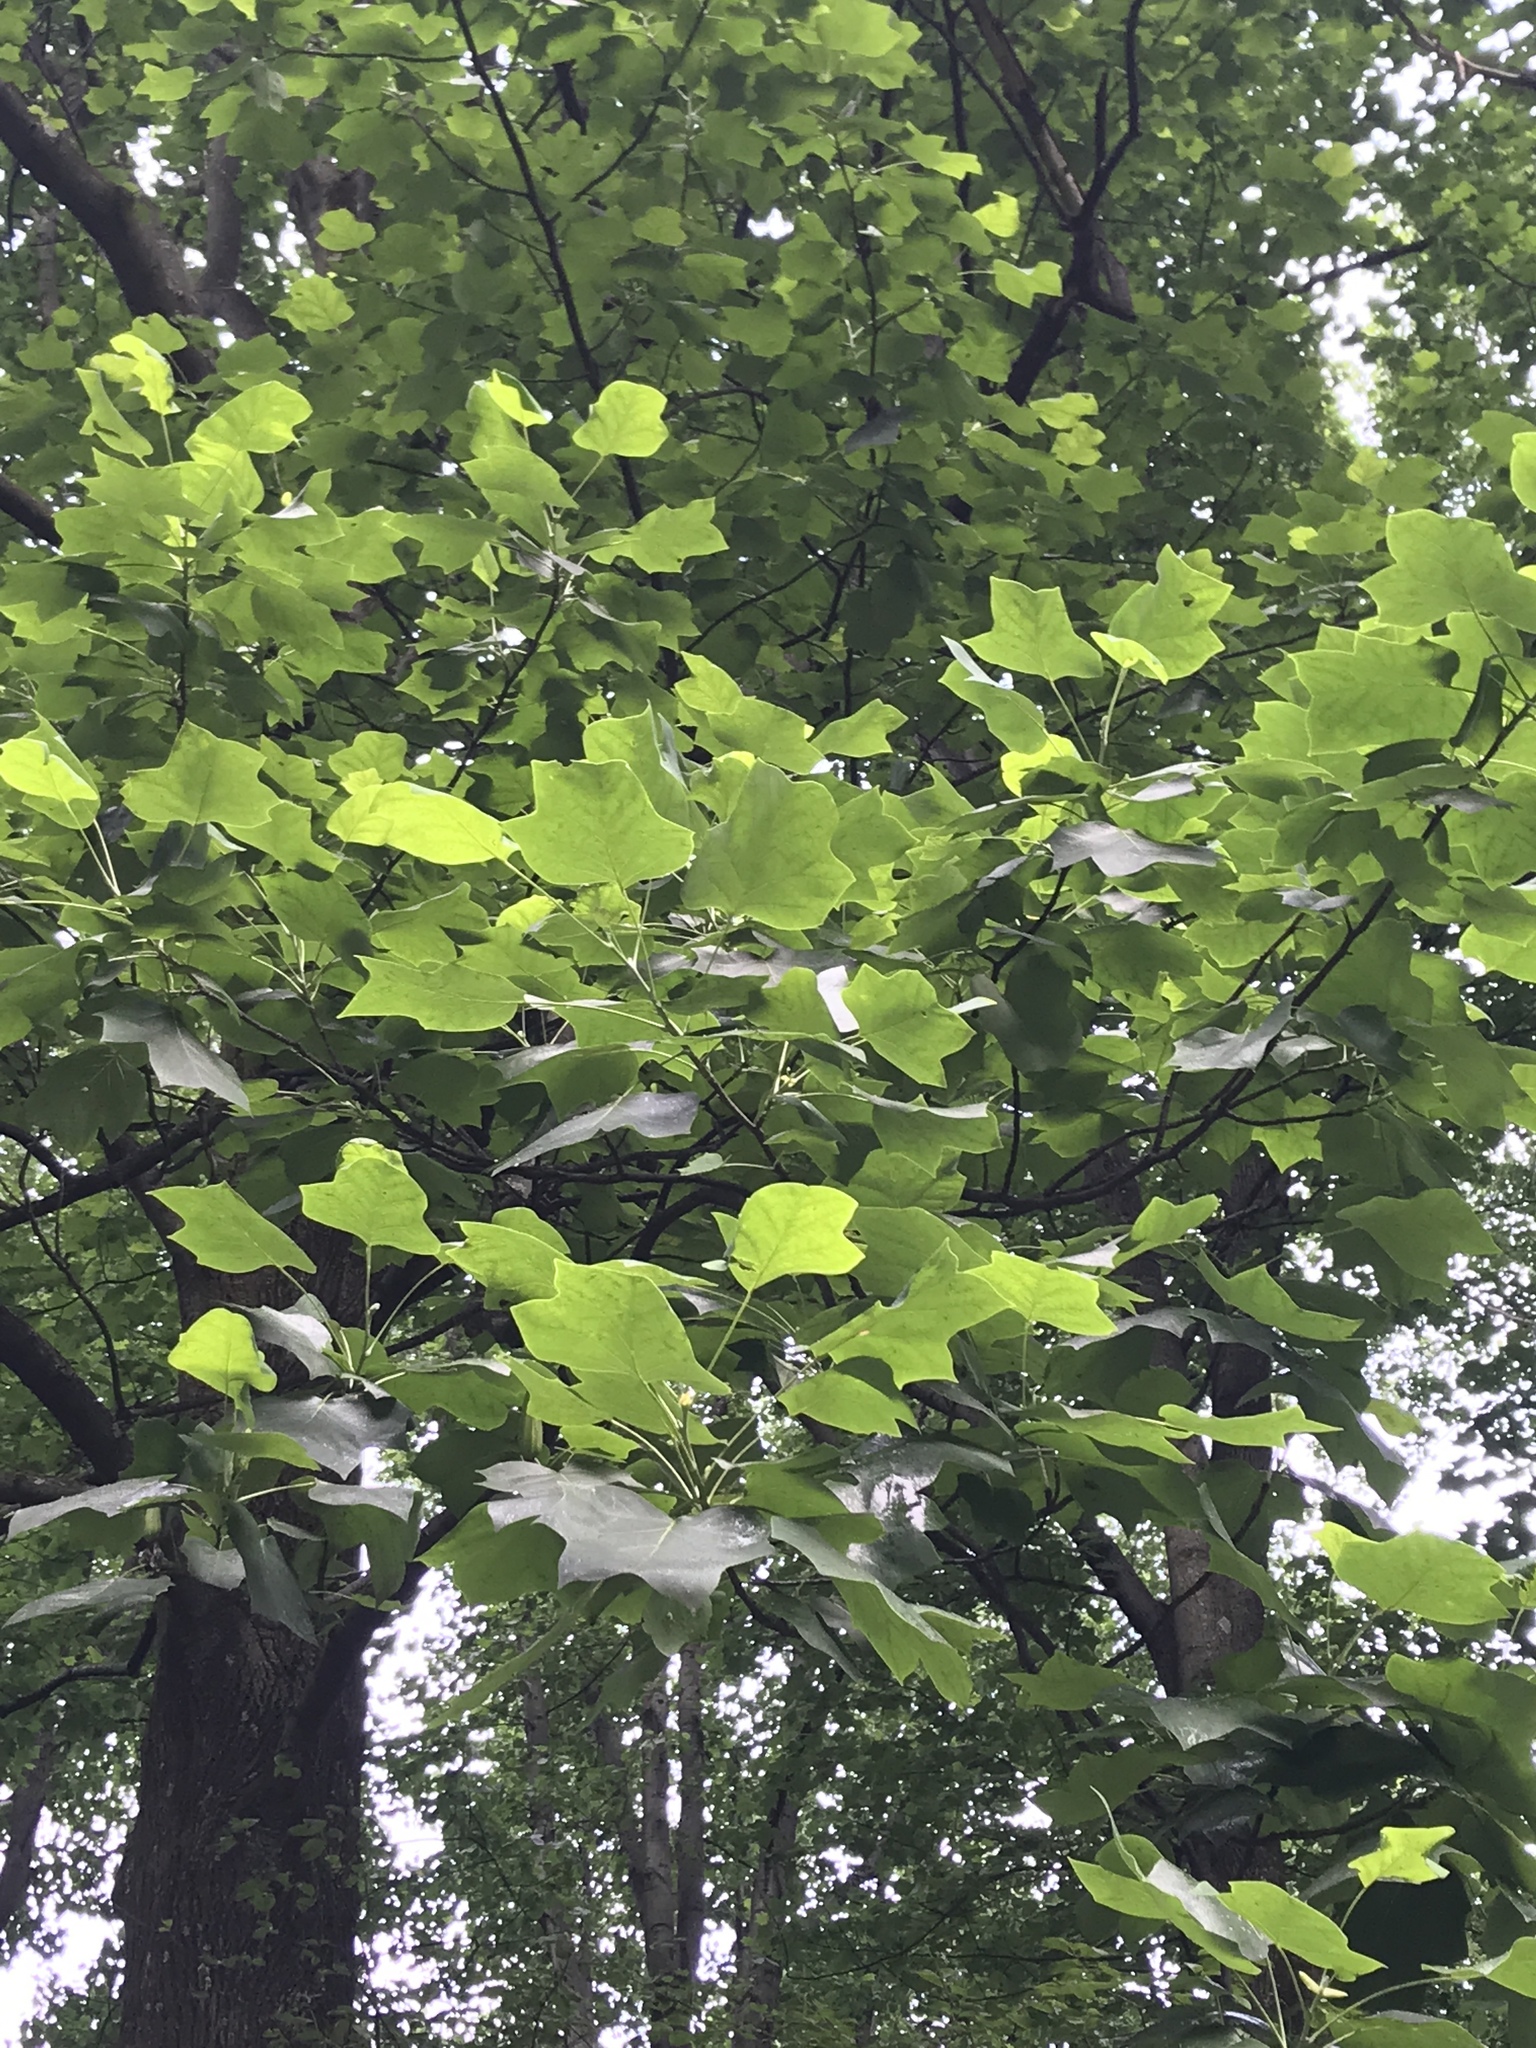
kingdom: Plantae
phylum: Tracheophyta
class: Magnoliopsida
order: Magnoliales
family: Magnoliaceae
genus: Liriodendron
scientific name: Liriodendron tulipifera
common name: Tulip tree
